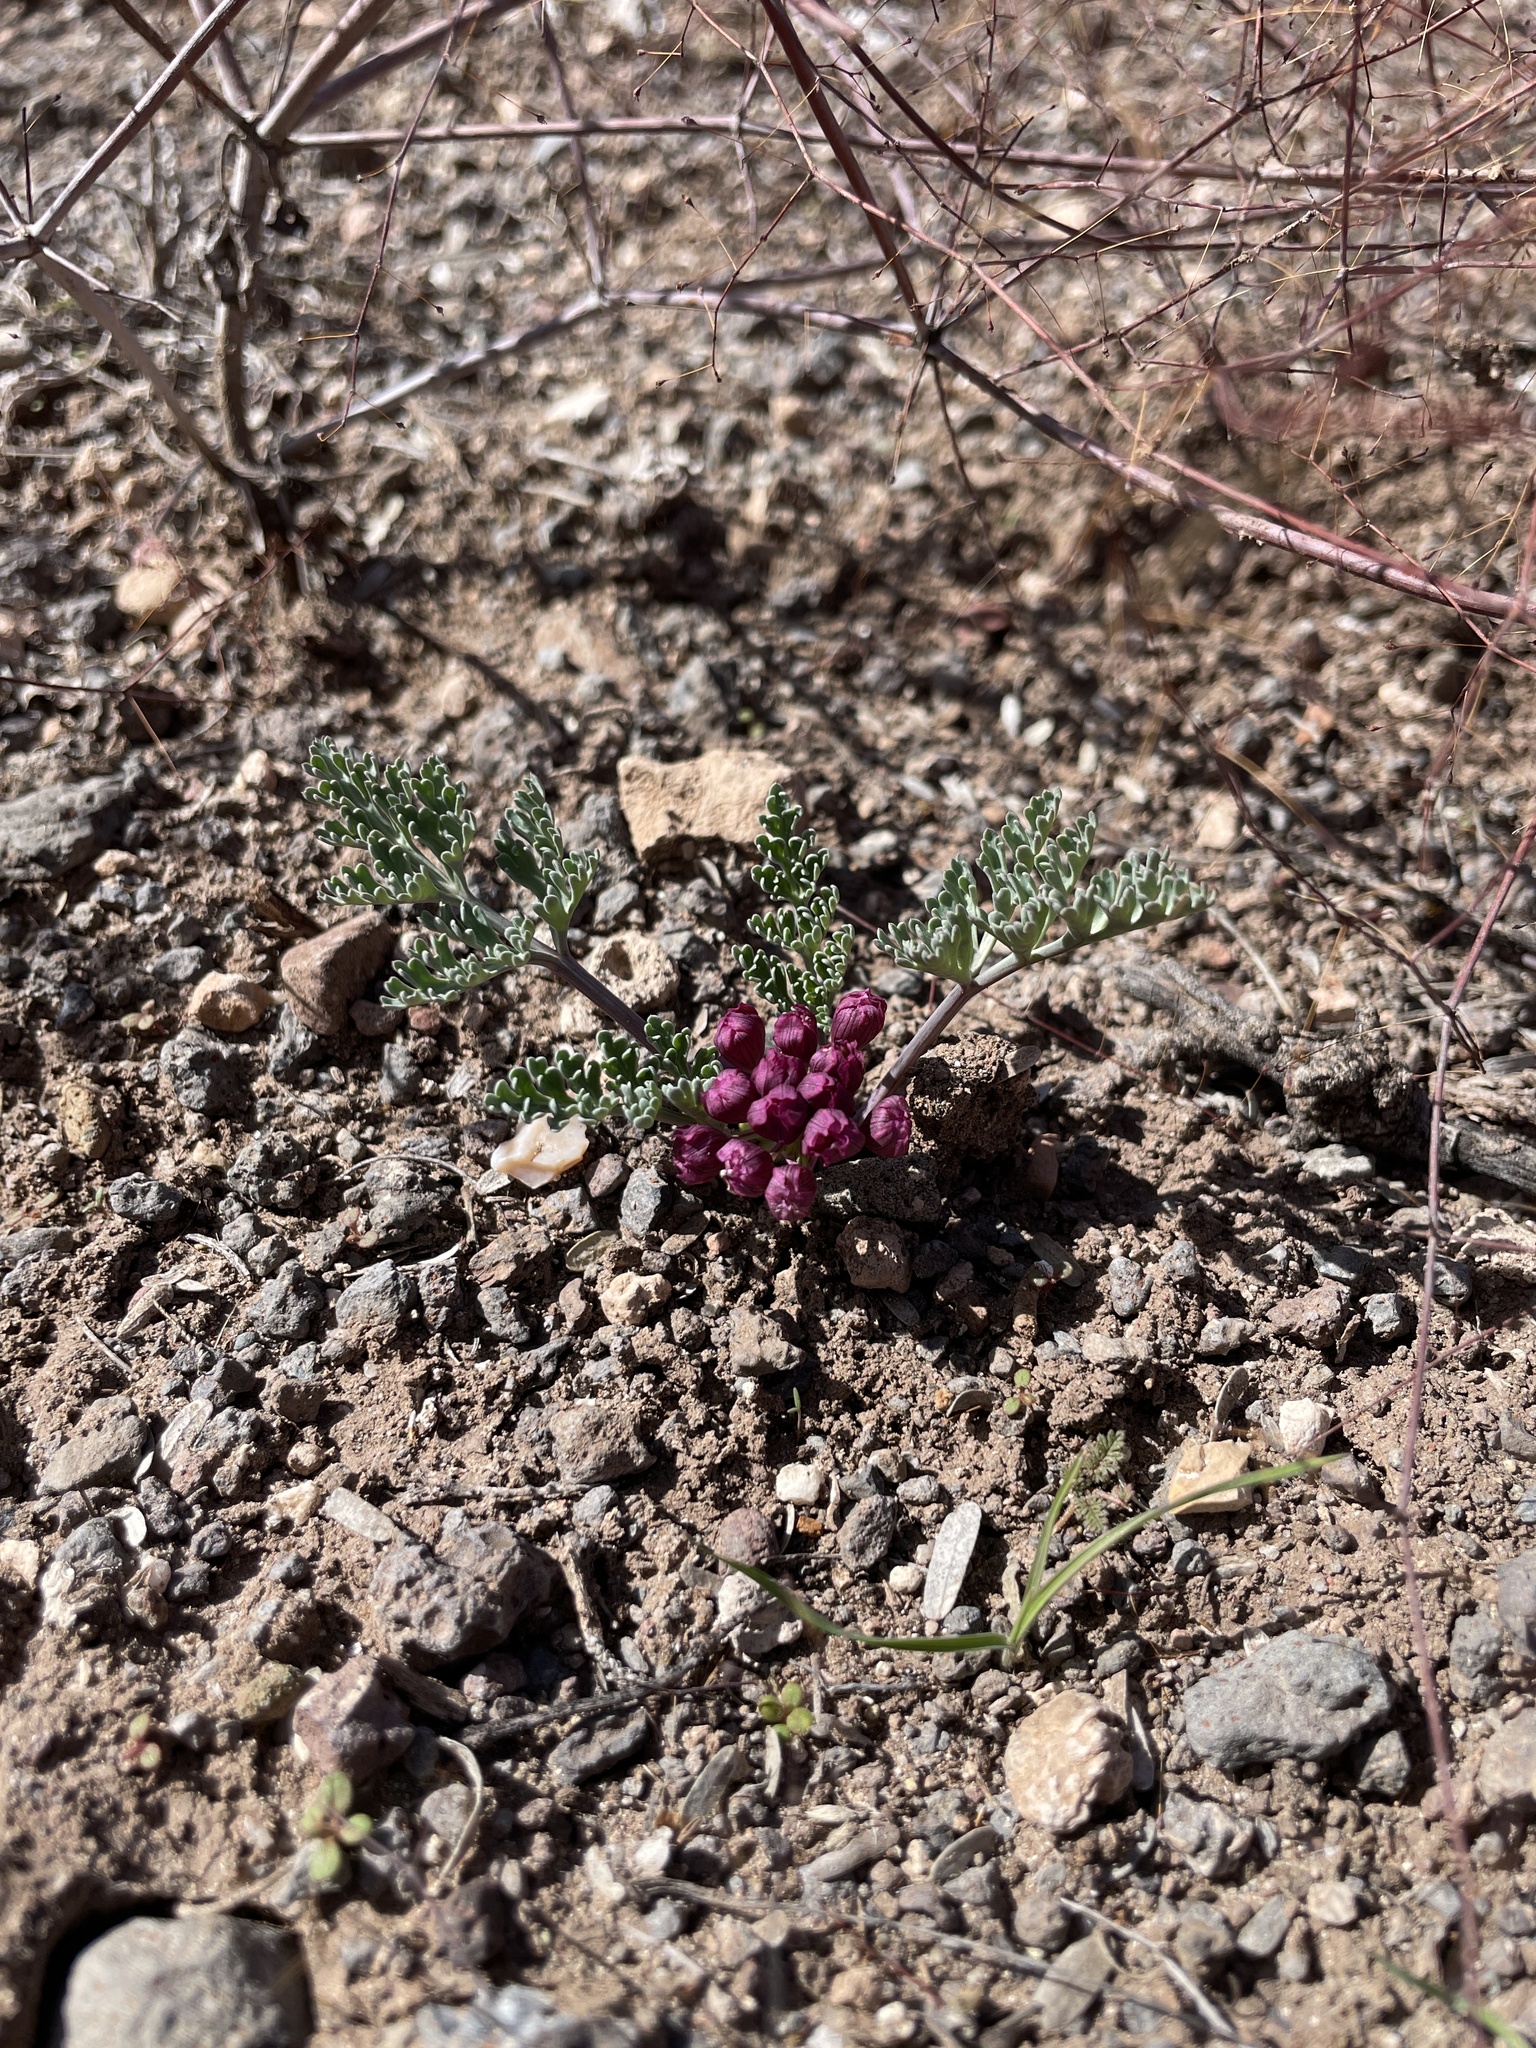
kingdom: Plantae
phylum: Tracheophyta
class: Magnoliopsida
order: Apiales
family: Apiaceae
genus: Vesper
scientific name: Vesper multinervatus
